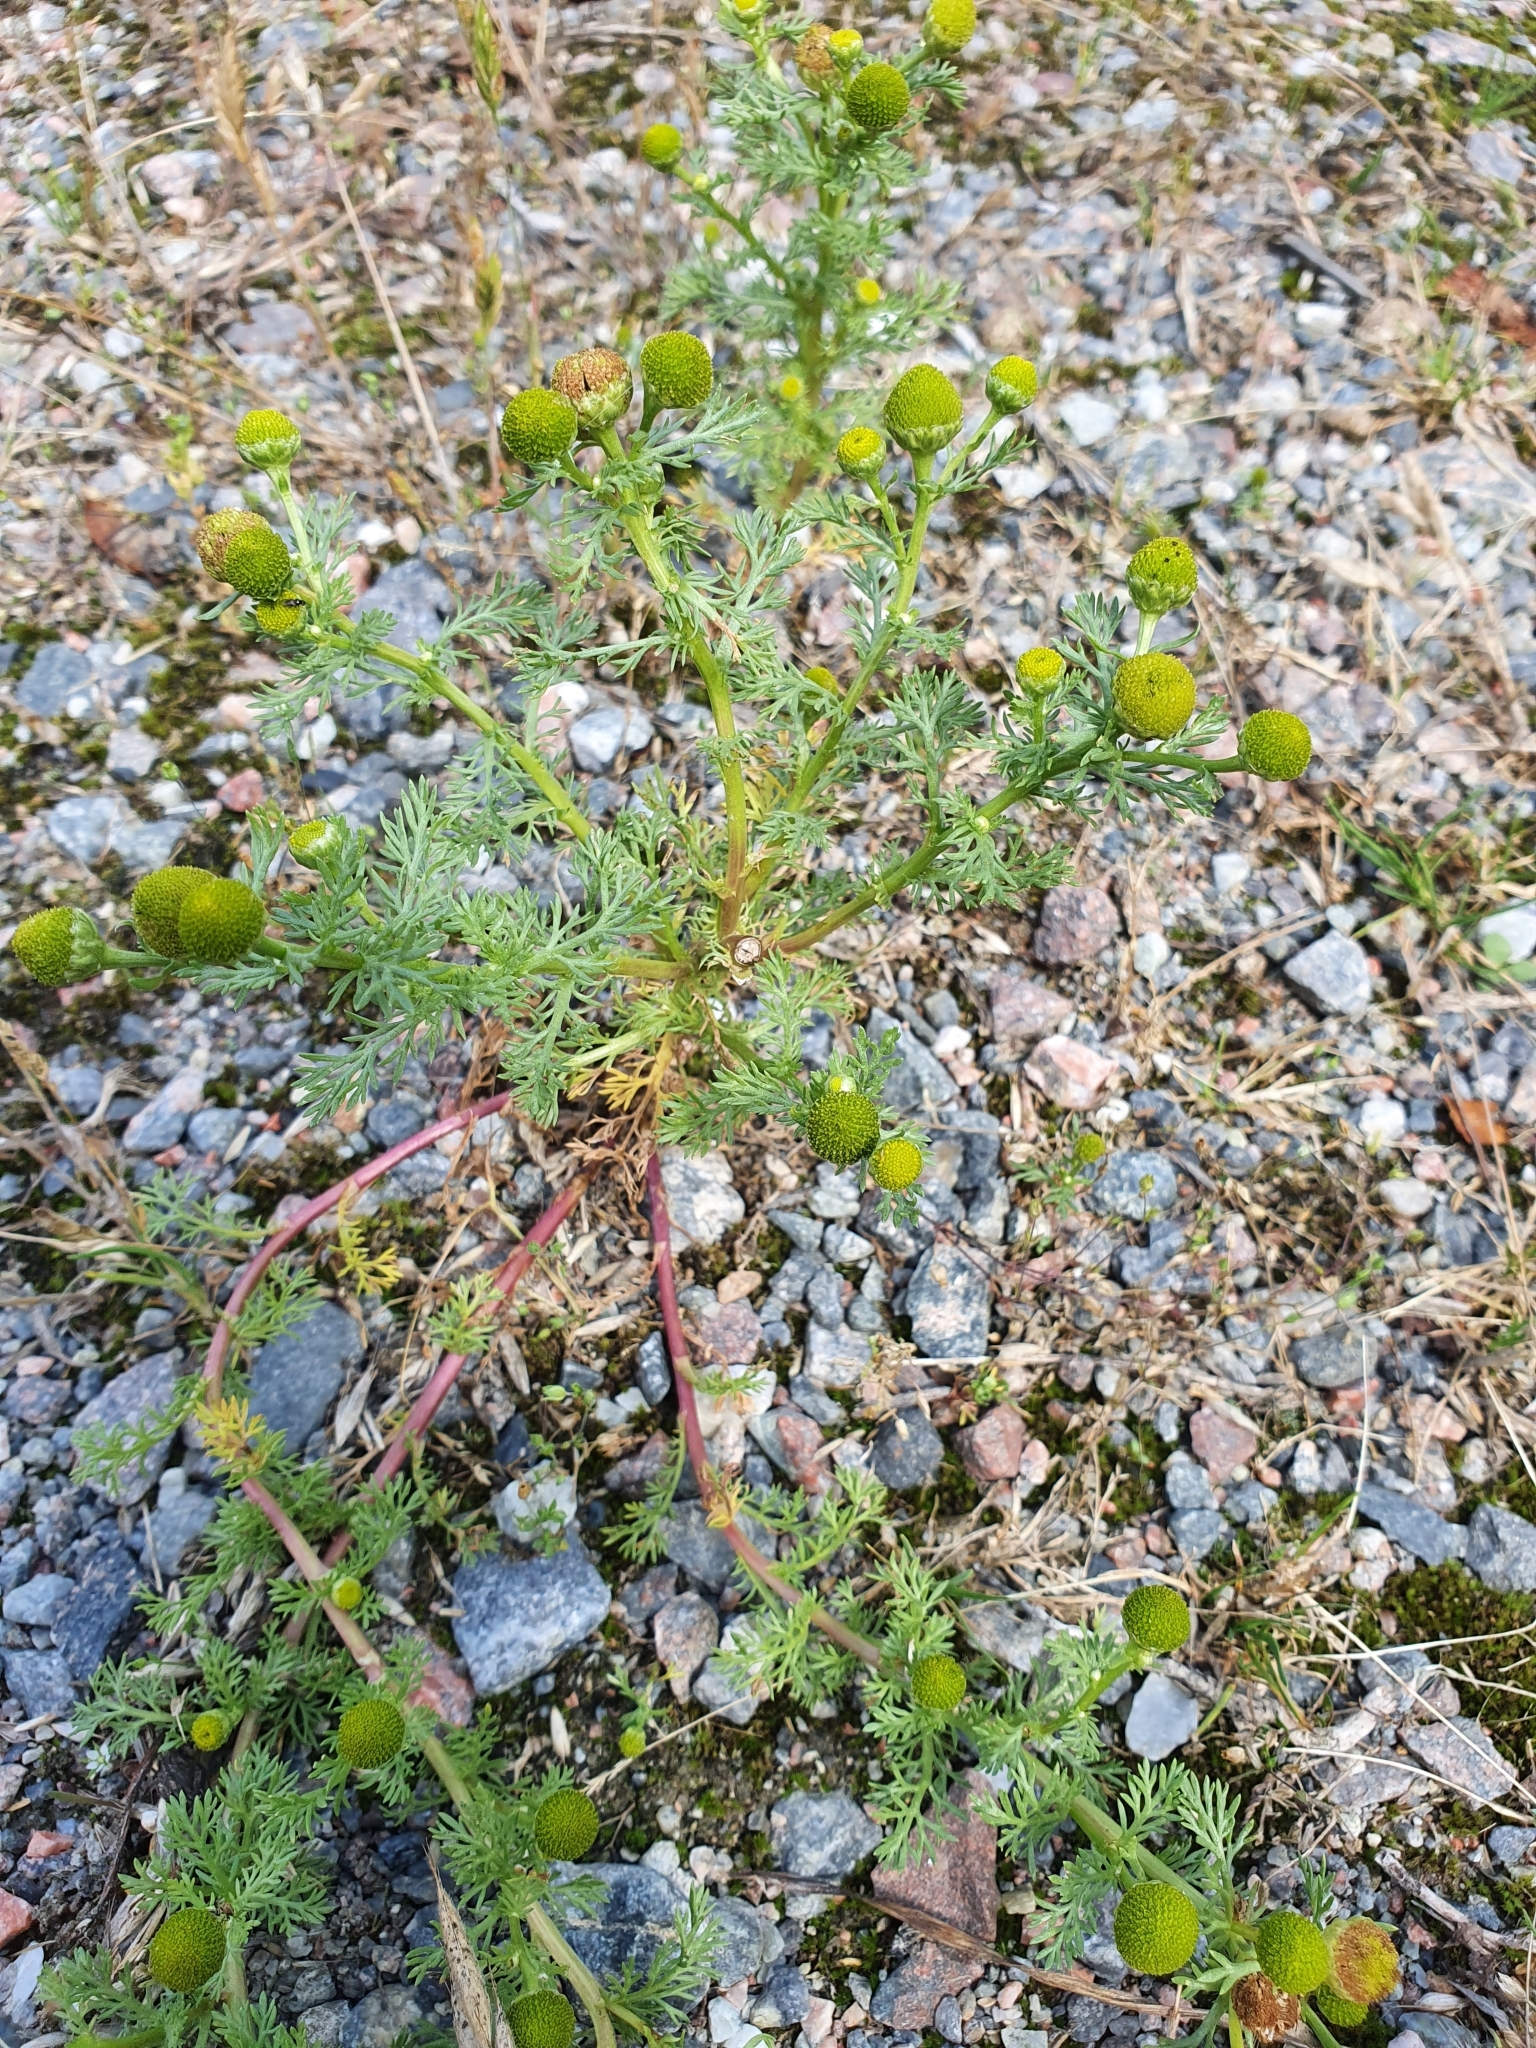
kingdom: Plantae
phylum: Tracheophyta
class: Magnoliopsida
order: Asterales
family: Asteraceae
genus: Matricaria
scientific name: Matricaria discoidea
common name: Disc mayweed
